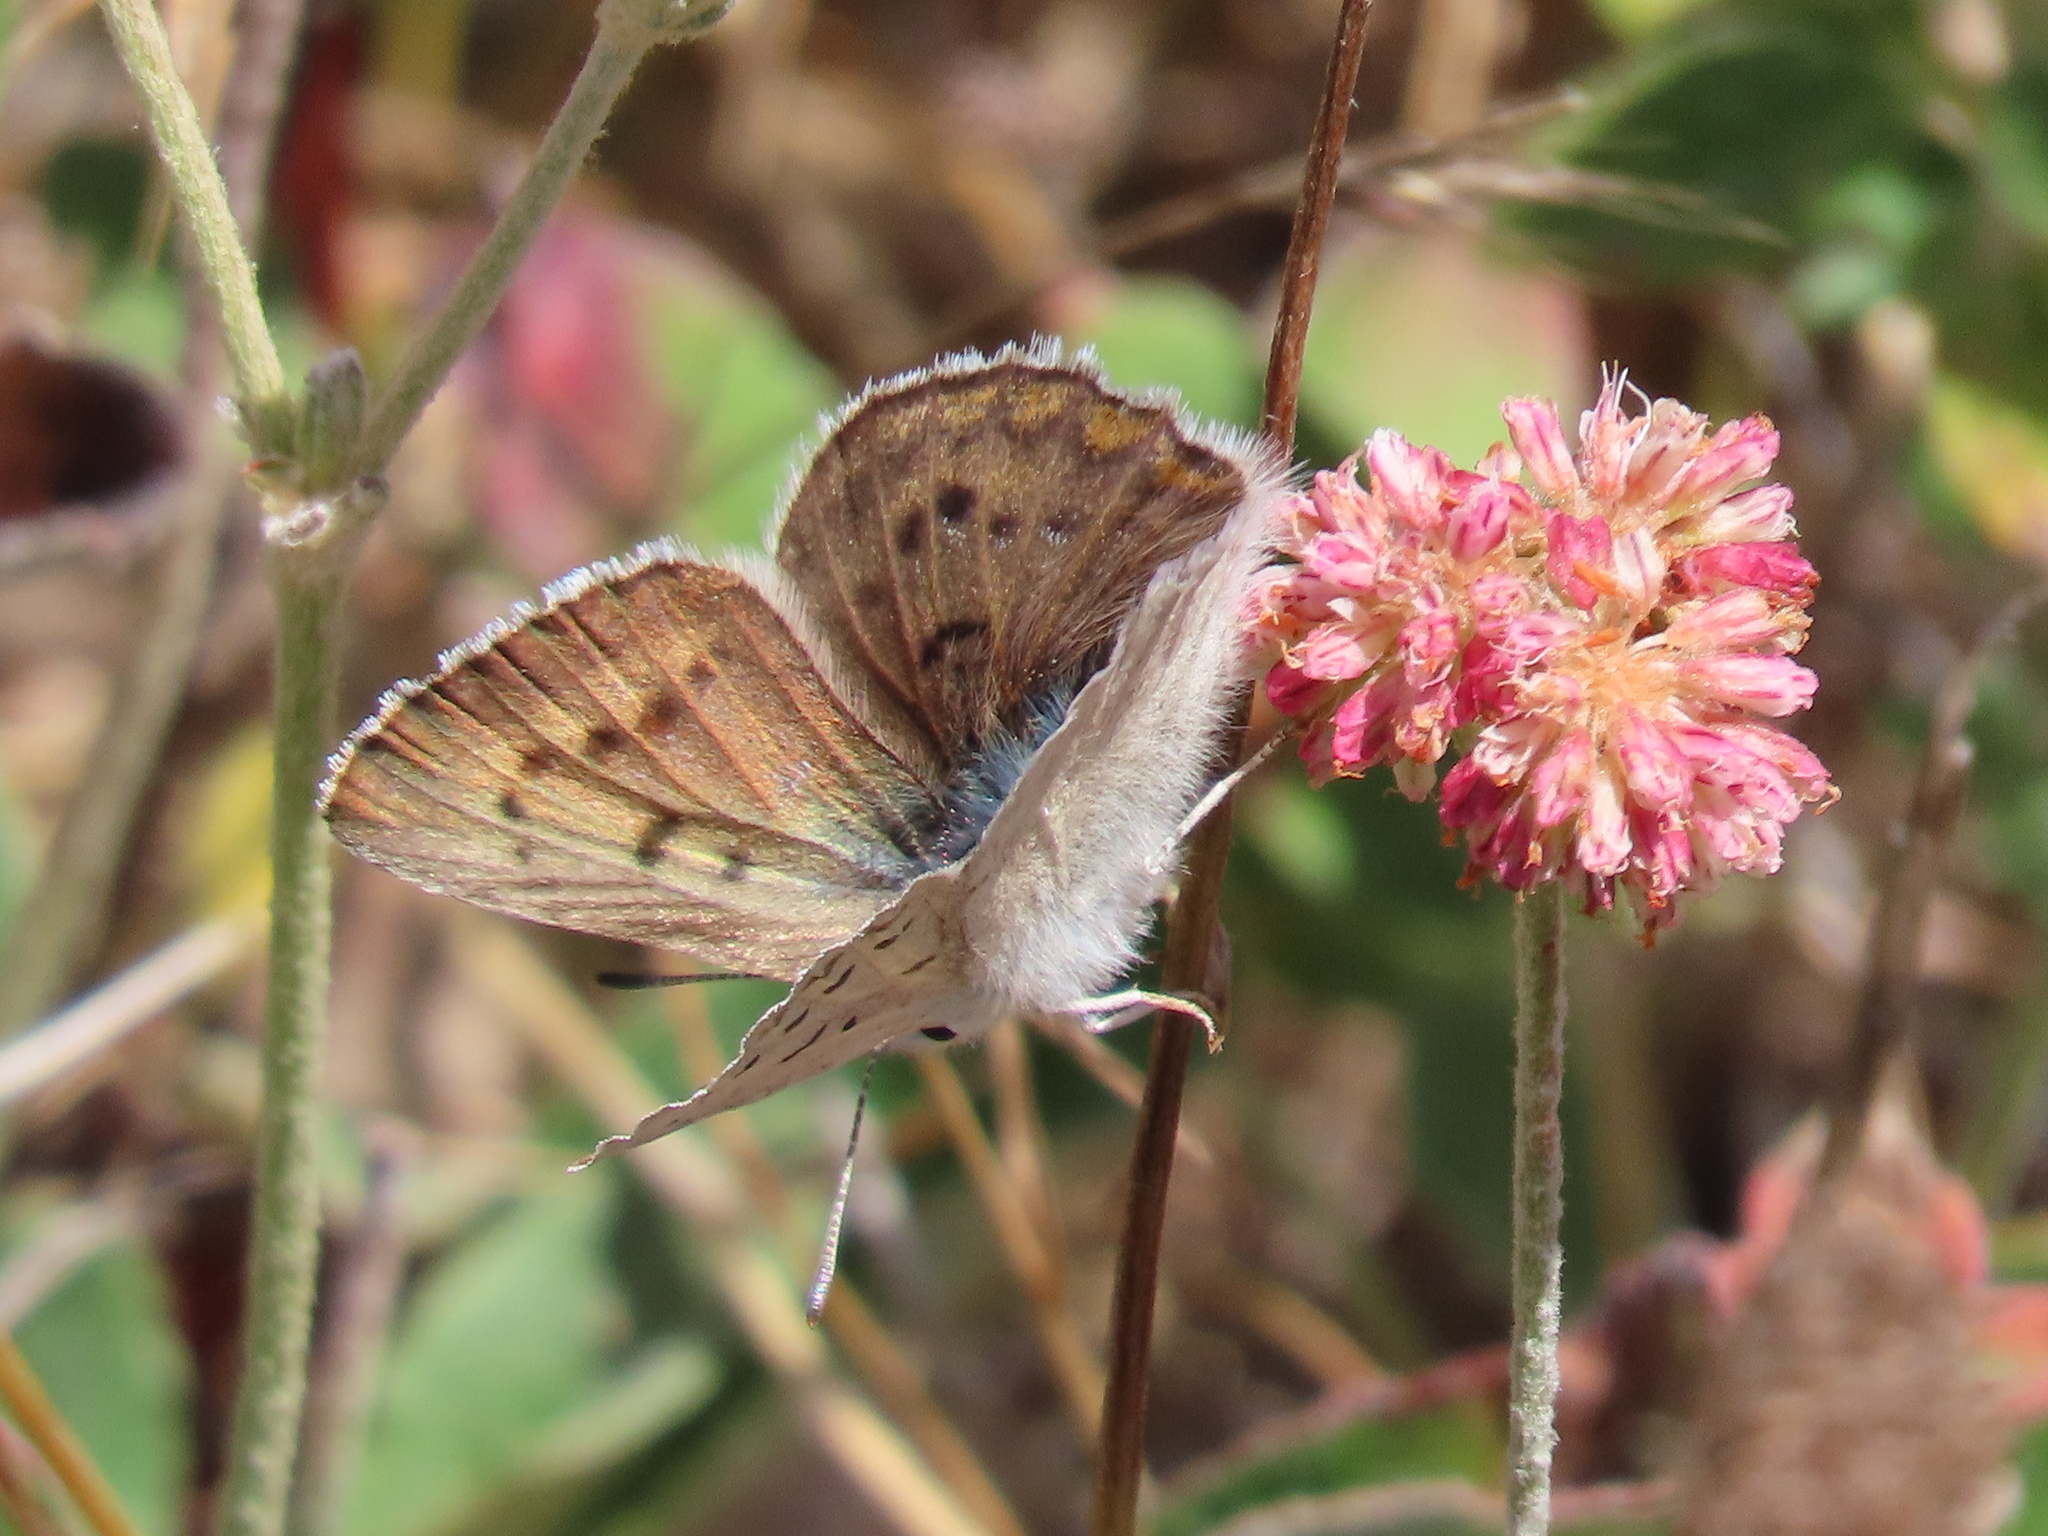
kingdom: Animalia
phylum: Arthropoda
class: Insecta
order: Lepidoptera
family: Lycaenidae
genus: Tharsalea
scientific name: Tharsalea heteronea
